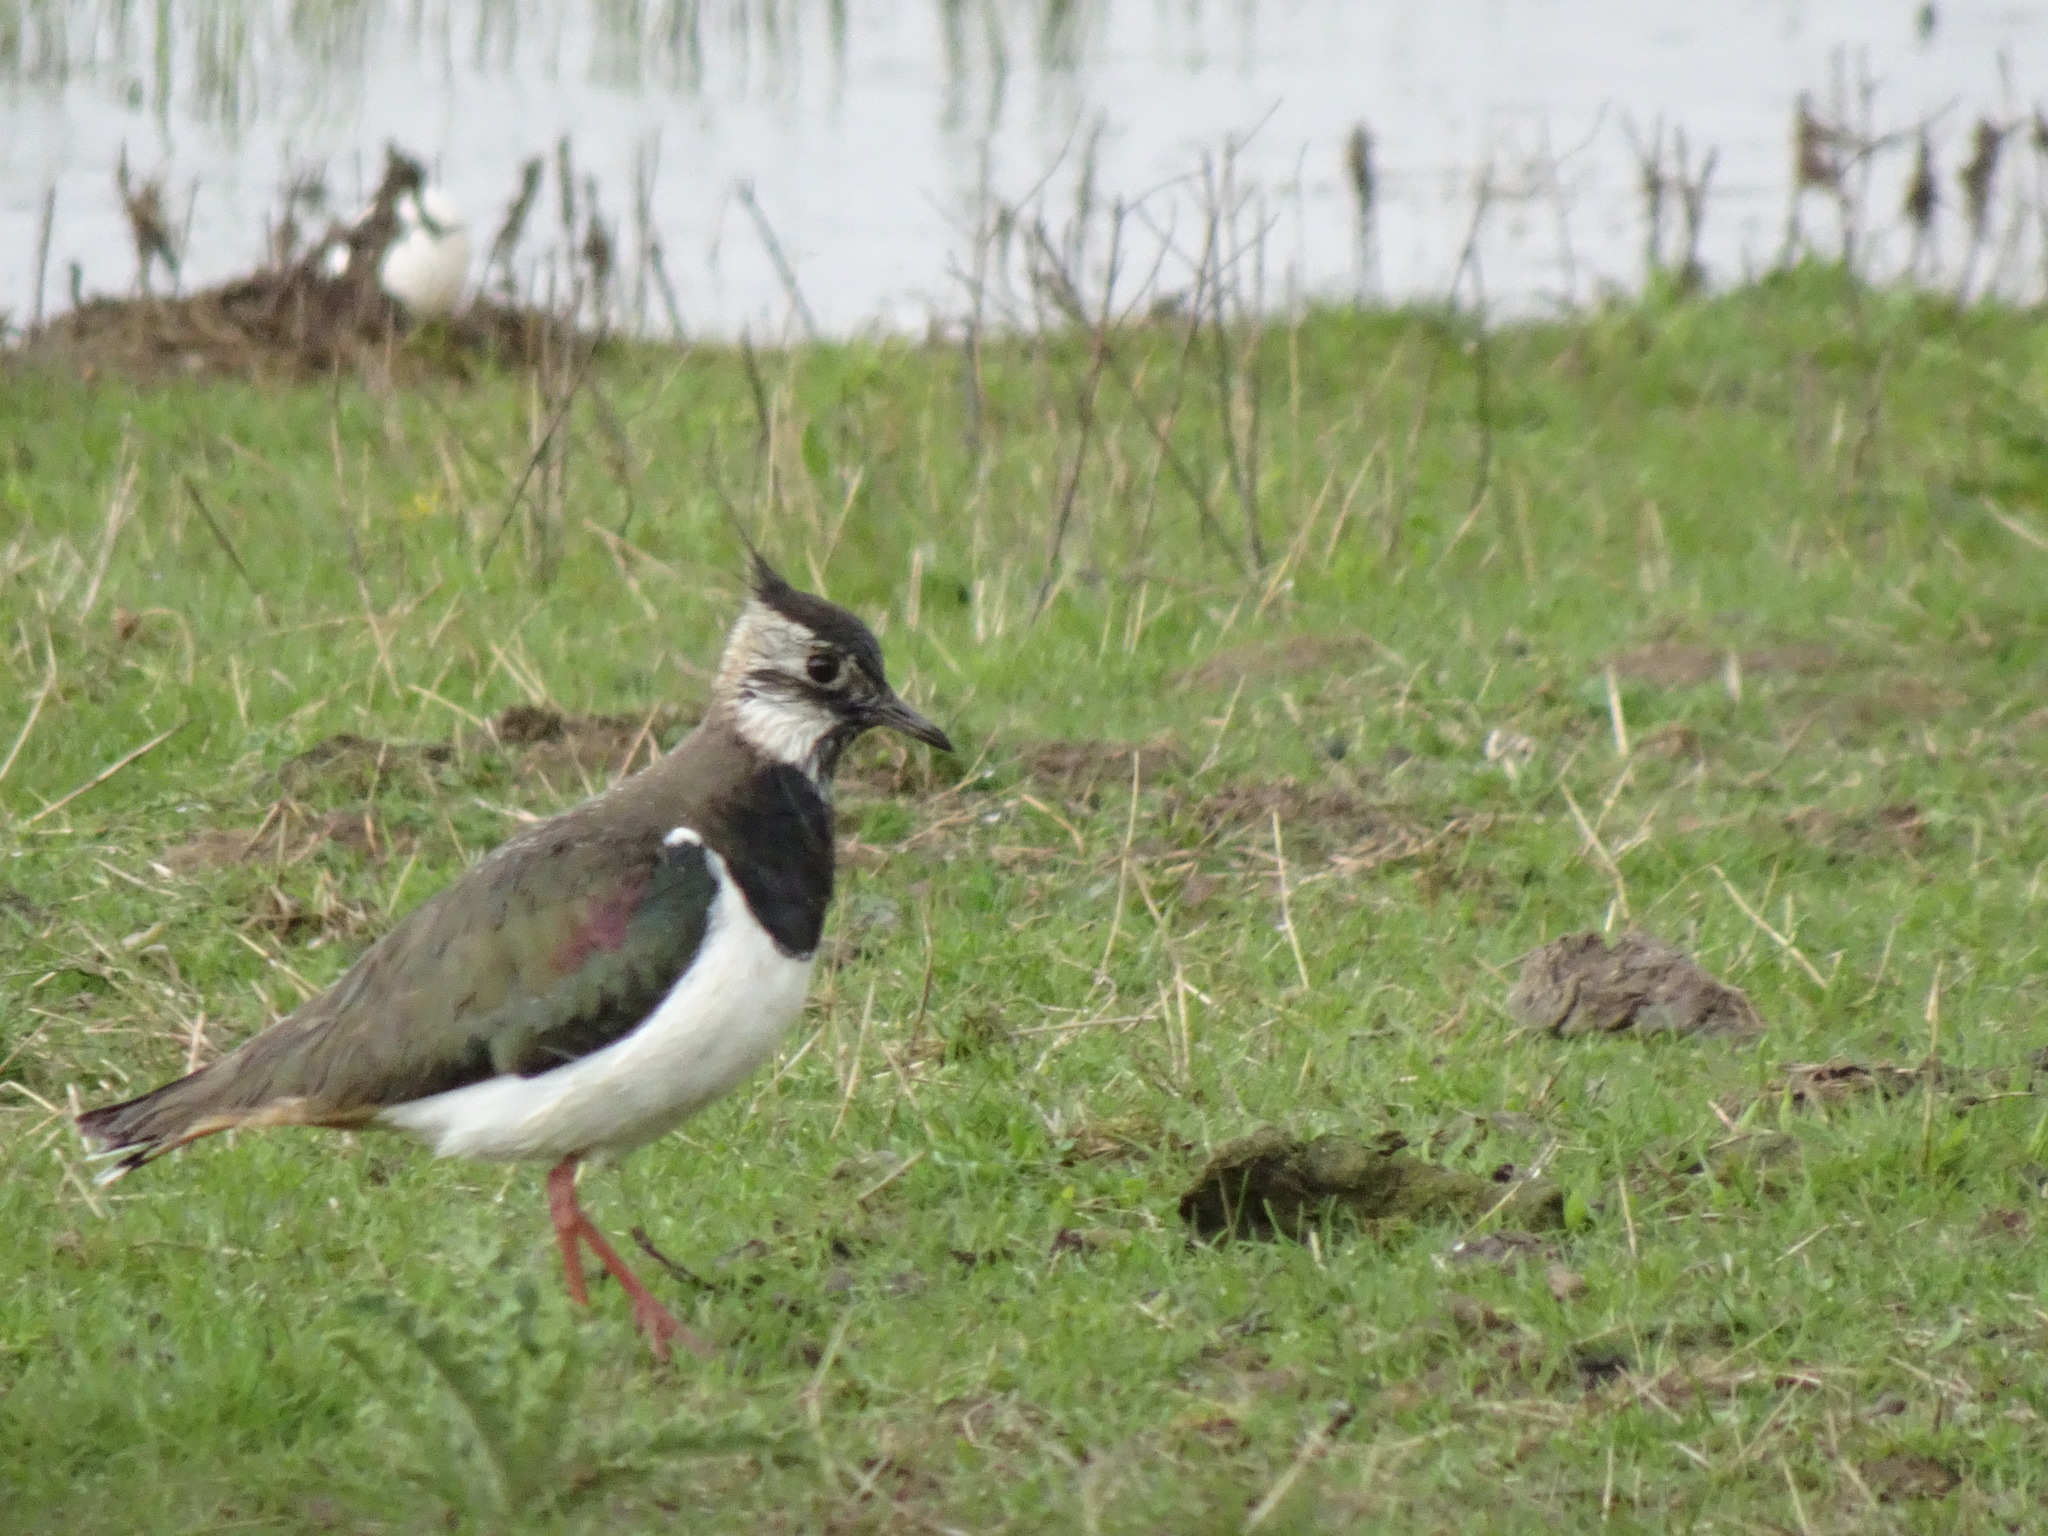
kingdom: Animalia
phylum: Chordata
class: Aves
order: Charadriiformes
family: Charadriidae
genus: Vanellus
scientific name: Vanellus vanellus
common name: Northern lapwing
